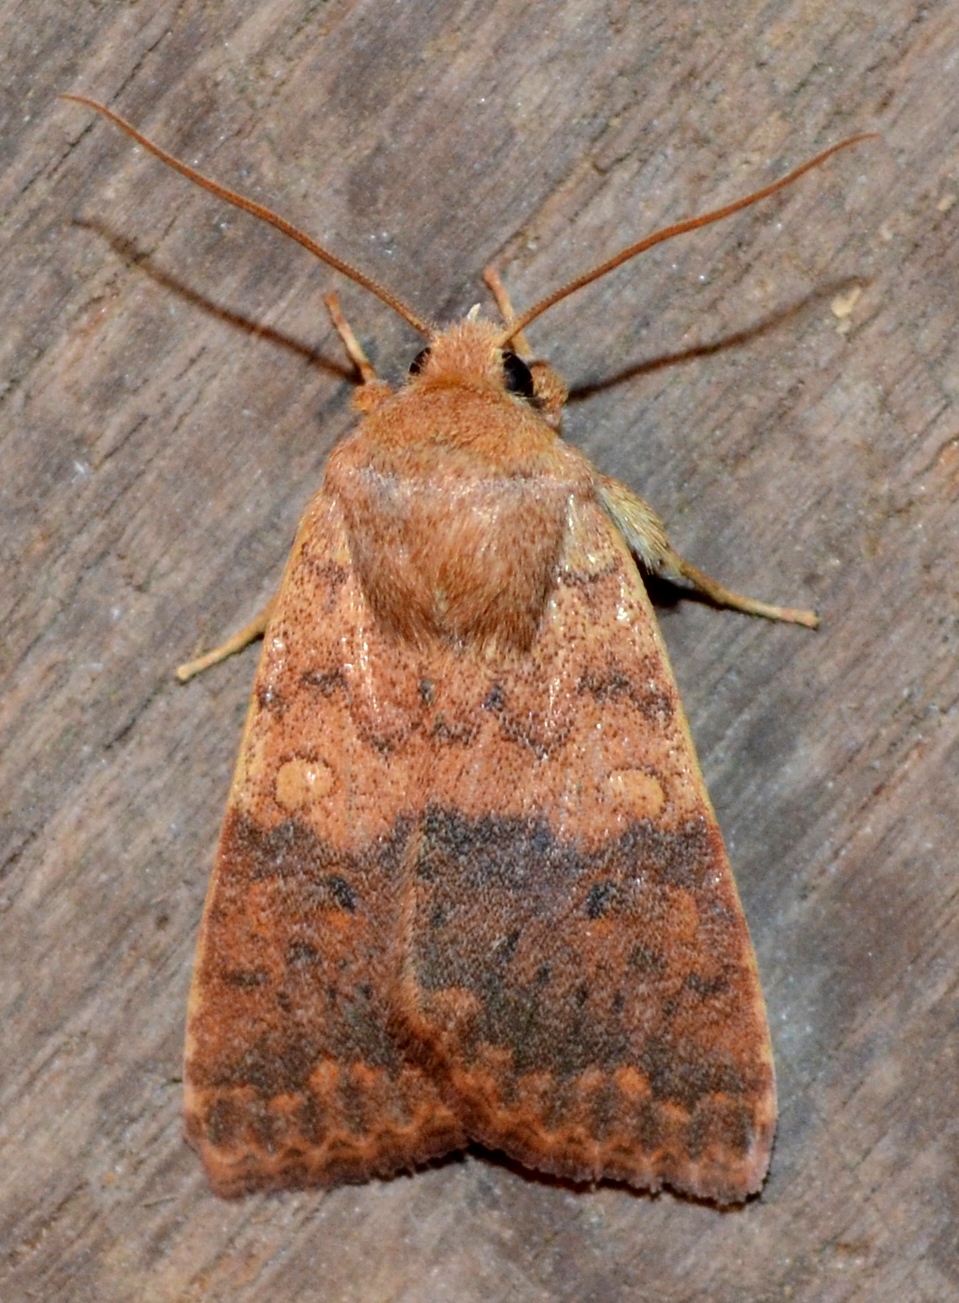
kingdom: Animalia
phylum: Arthropoda
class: Insecta
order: Lepidoptera
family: Noctuidae
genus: Agrochola
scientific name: Agrochola bicolorago
